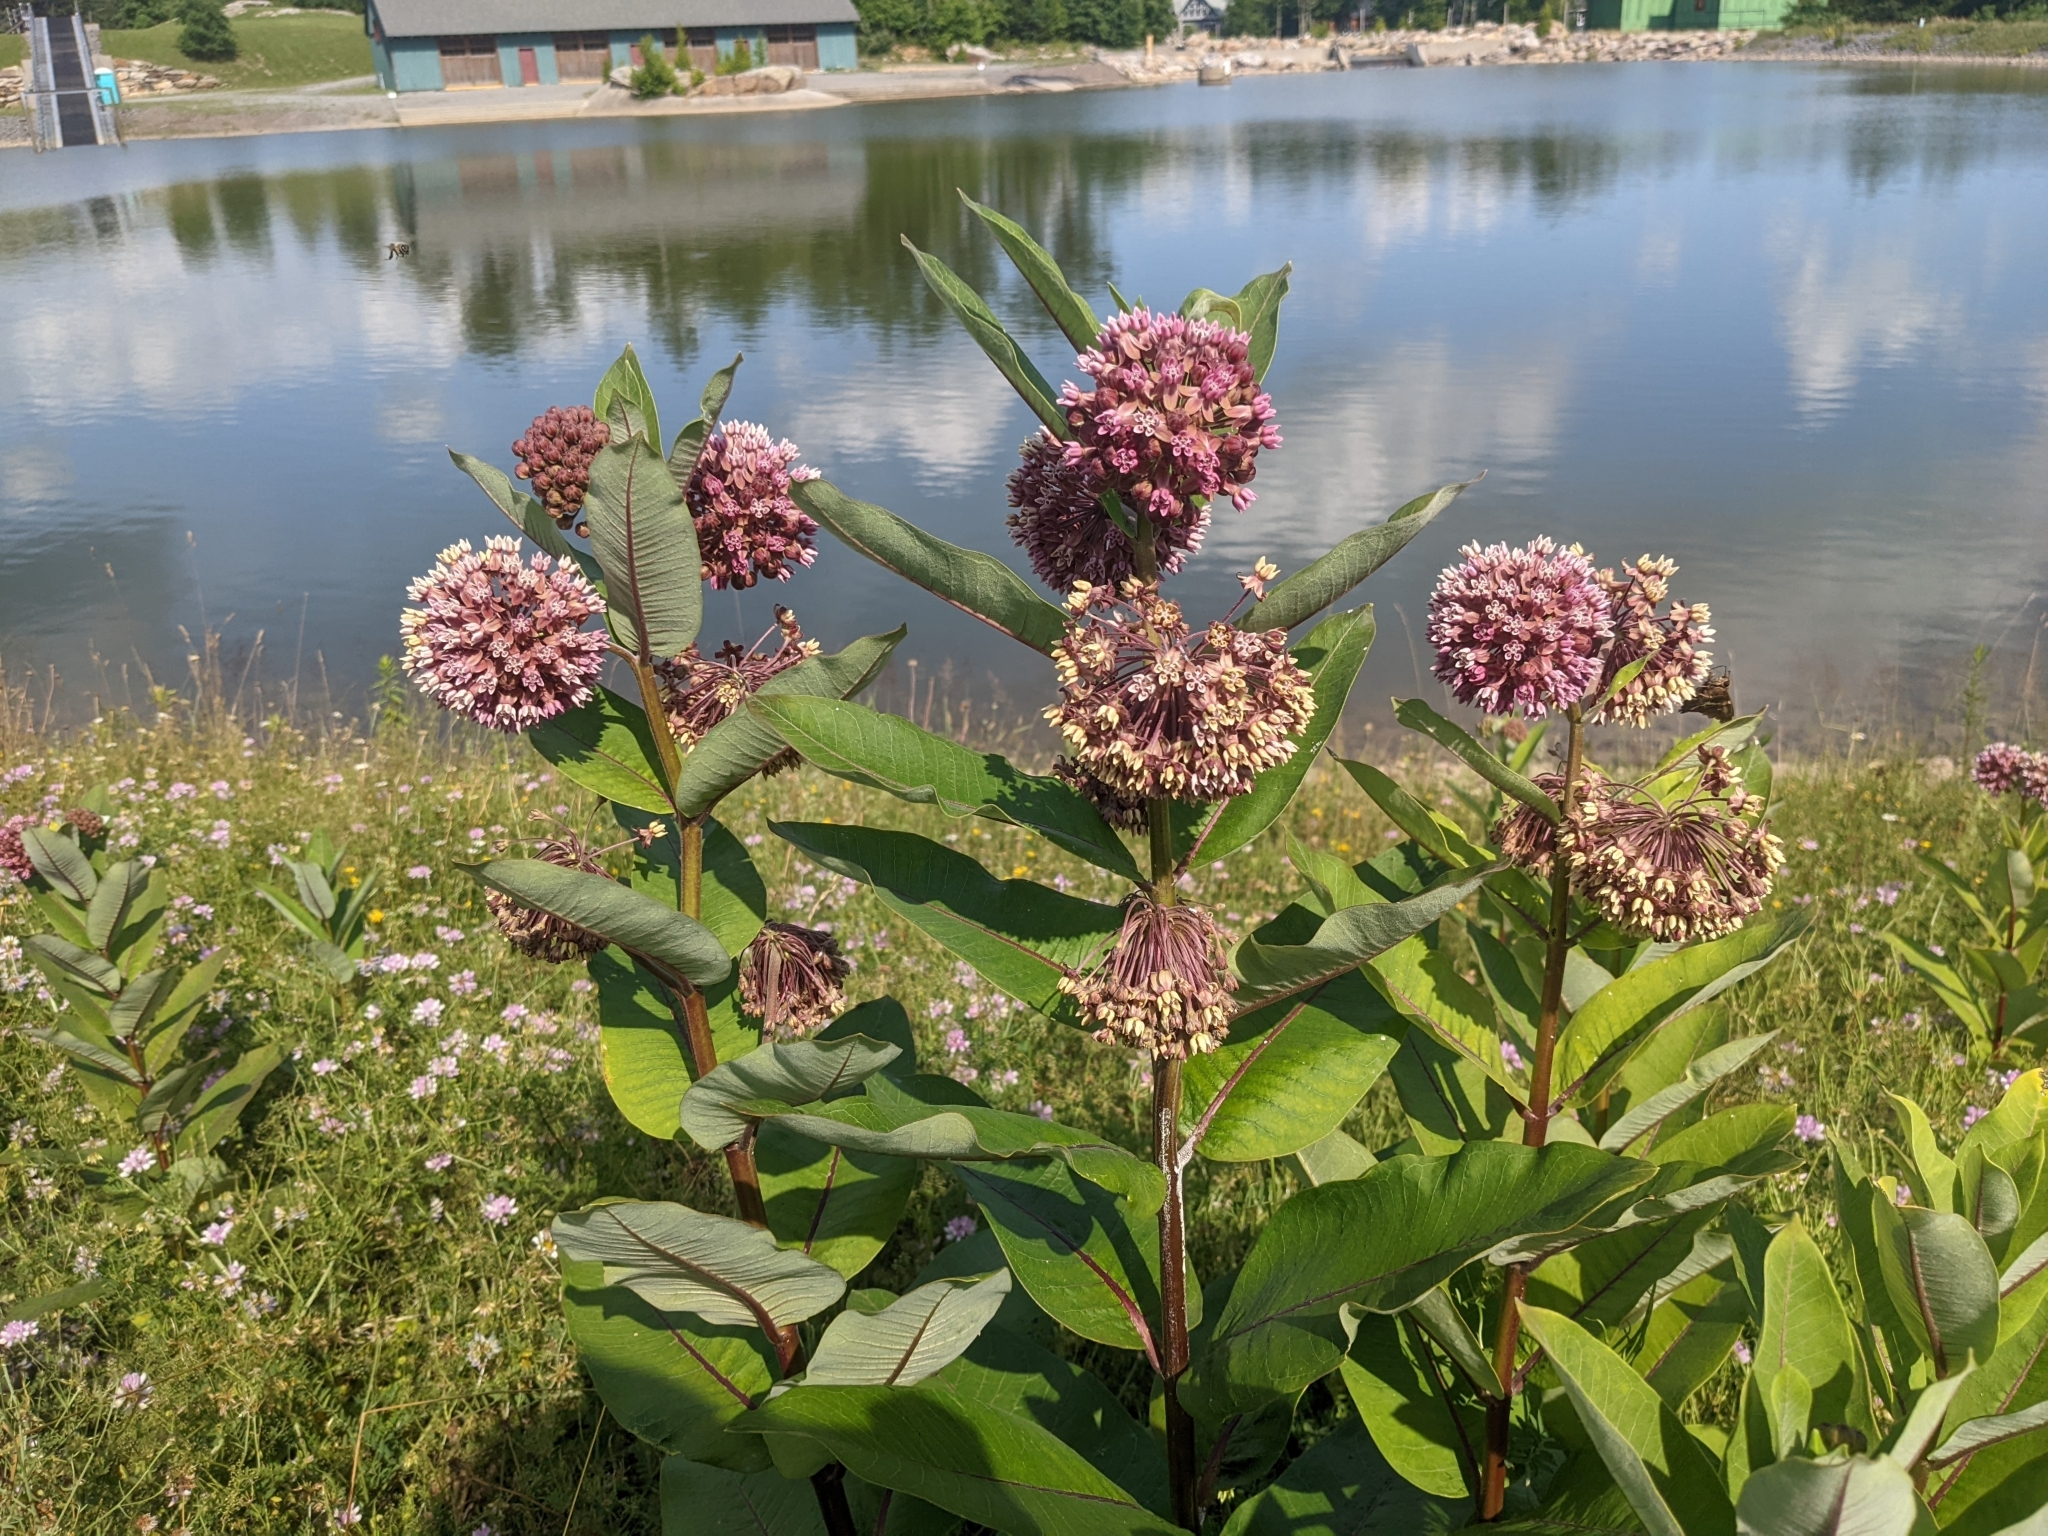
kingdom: Plantae
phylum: Tracheophyta
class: Magnoliopsida
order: Gentianales
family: Apocynaceae
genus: Asclepias
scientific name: Asclepias syriaca
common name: Common milkweed
